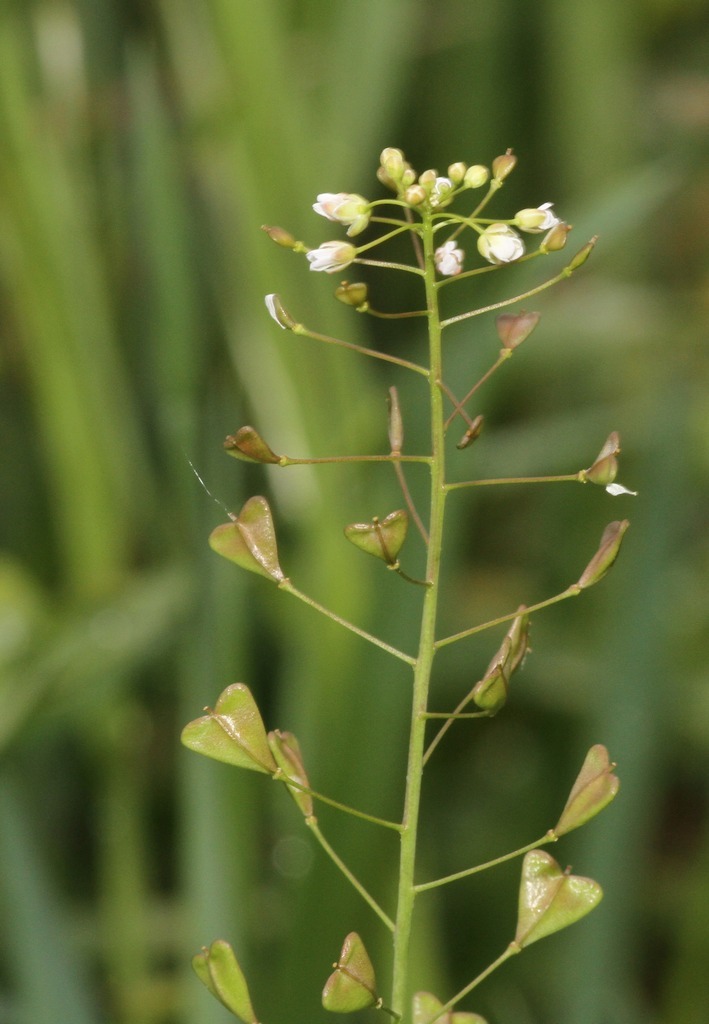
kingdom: Plantae
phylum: Tracheophyta
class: Magnoliopsida
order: Brassicales
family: Brassicaceae
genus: Capsella
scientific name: Capsella bursa-pastoris
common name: Shepherd's purse
